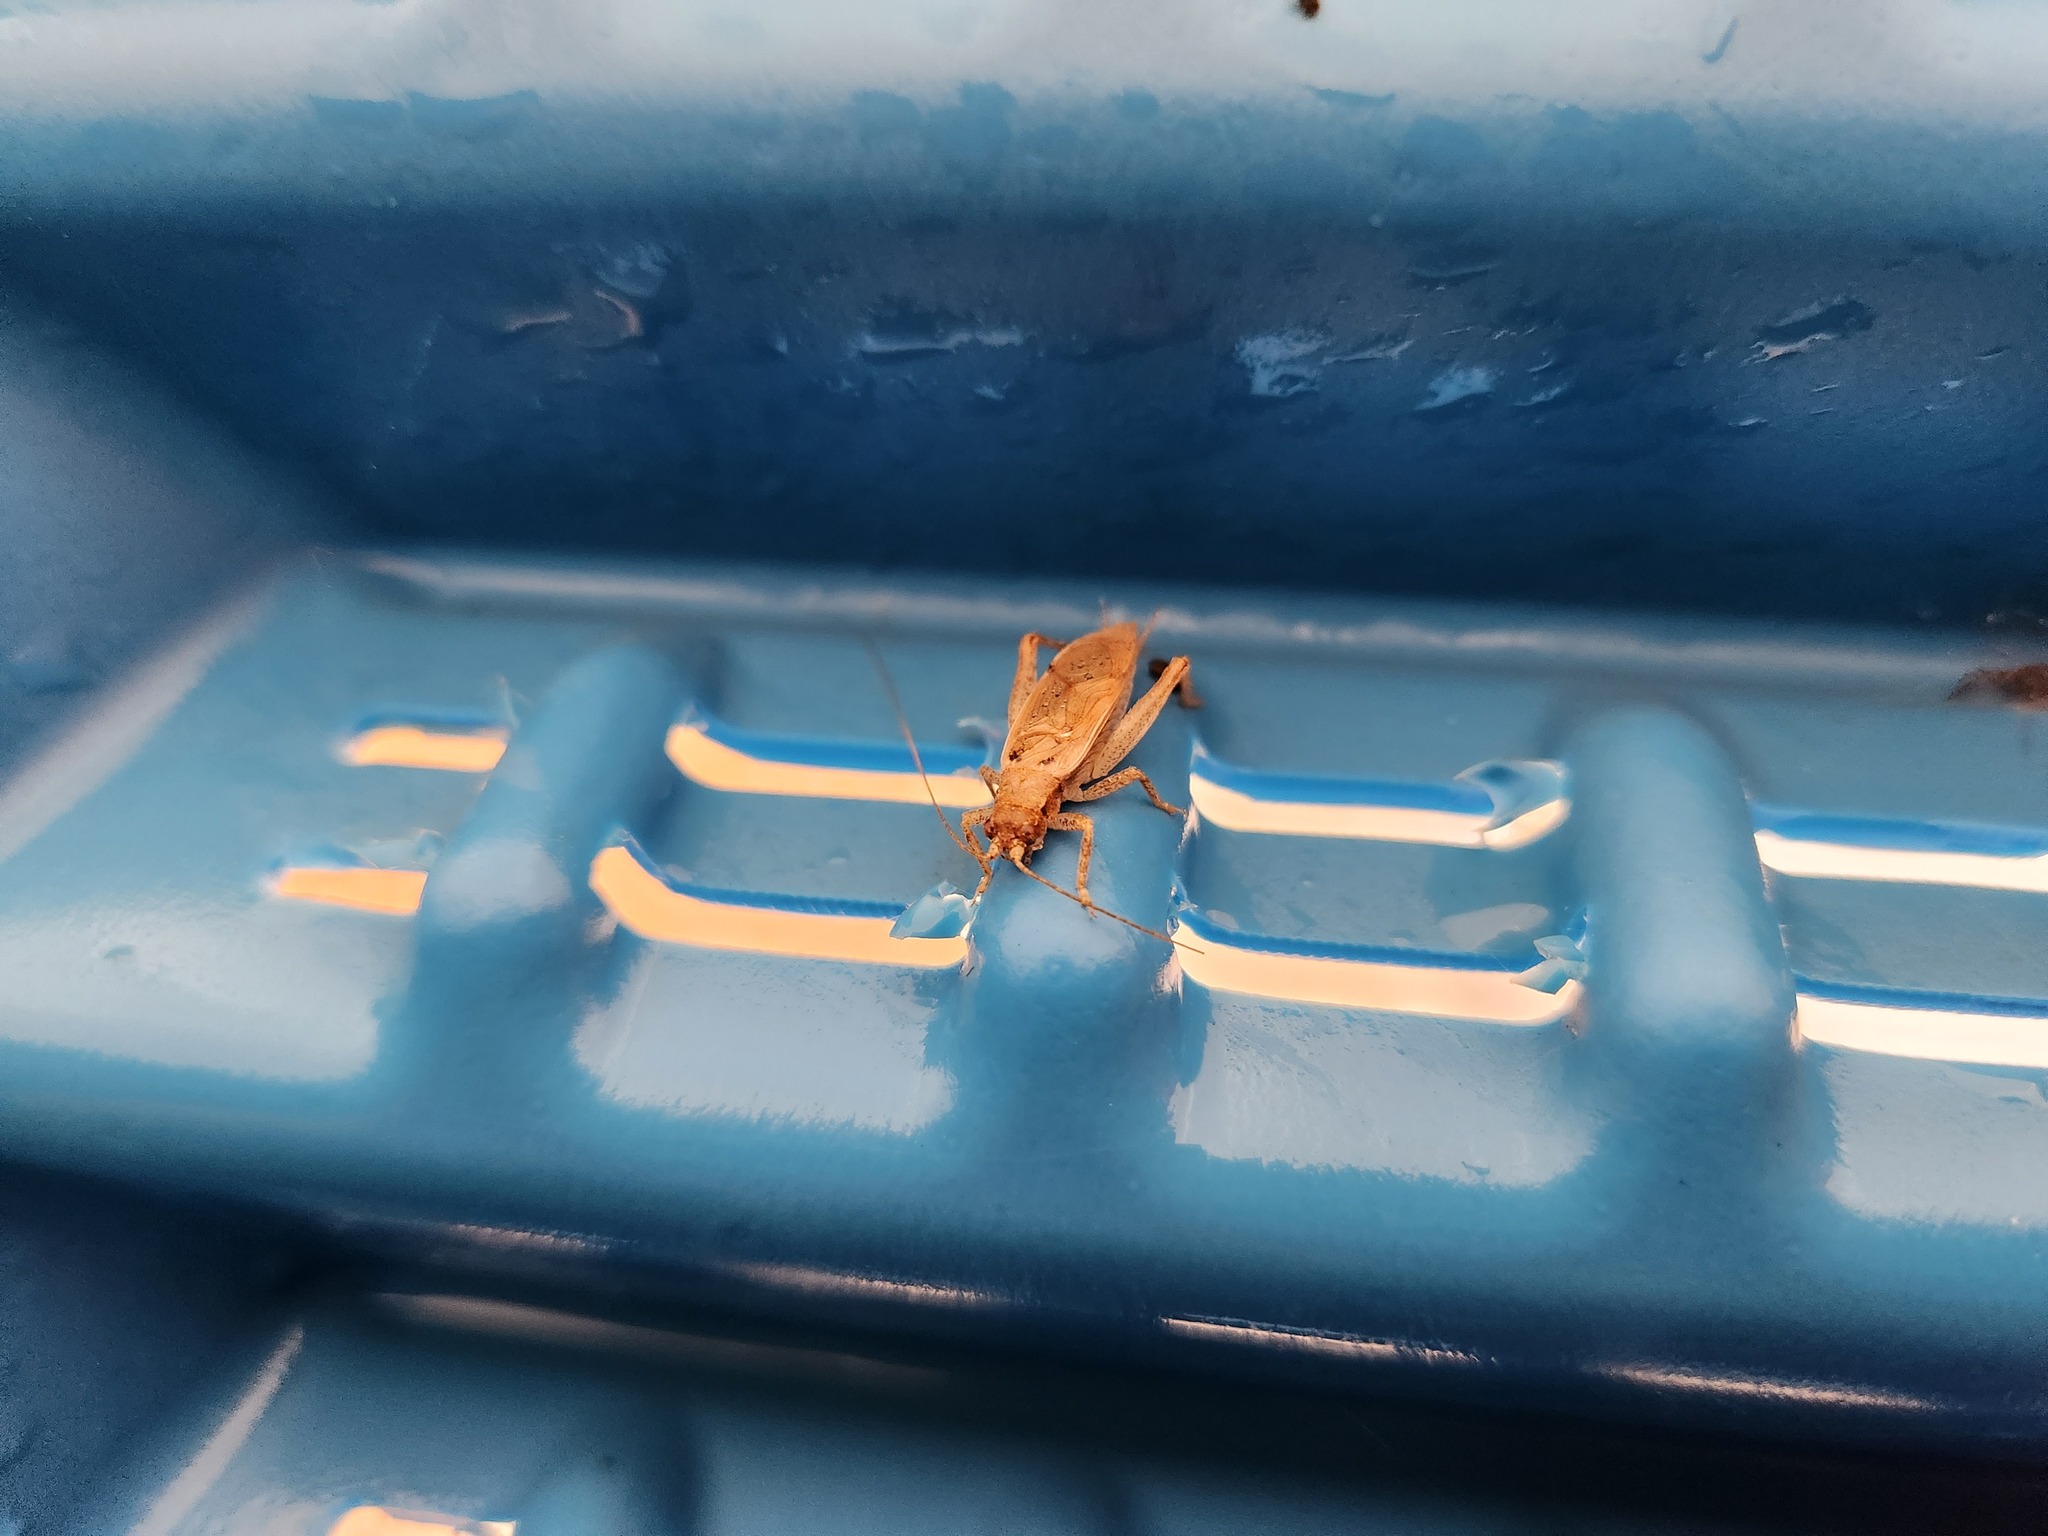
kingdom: Animalia
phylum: Arthropoda
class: Insecta
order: Orthoptera
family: Gryllidae
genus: Hapithus
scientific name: Hapithus saltator
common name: Jumping bush cricket
